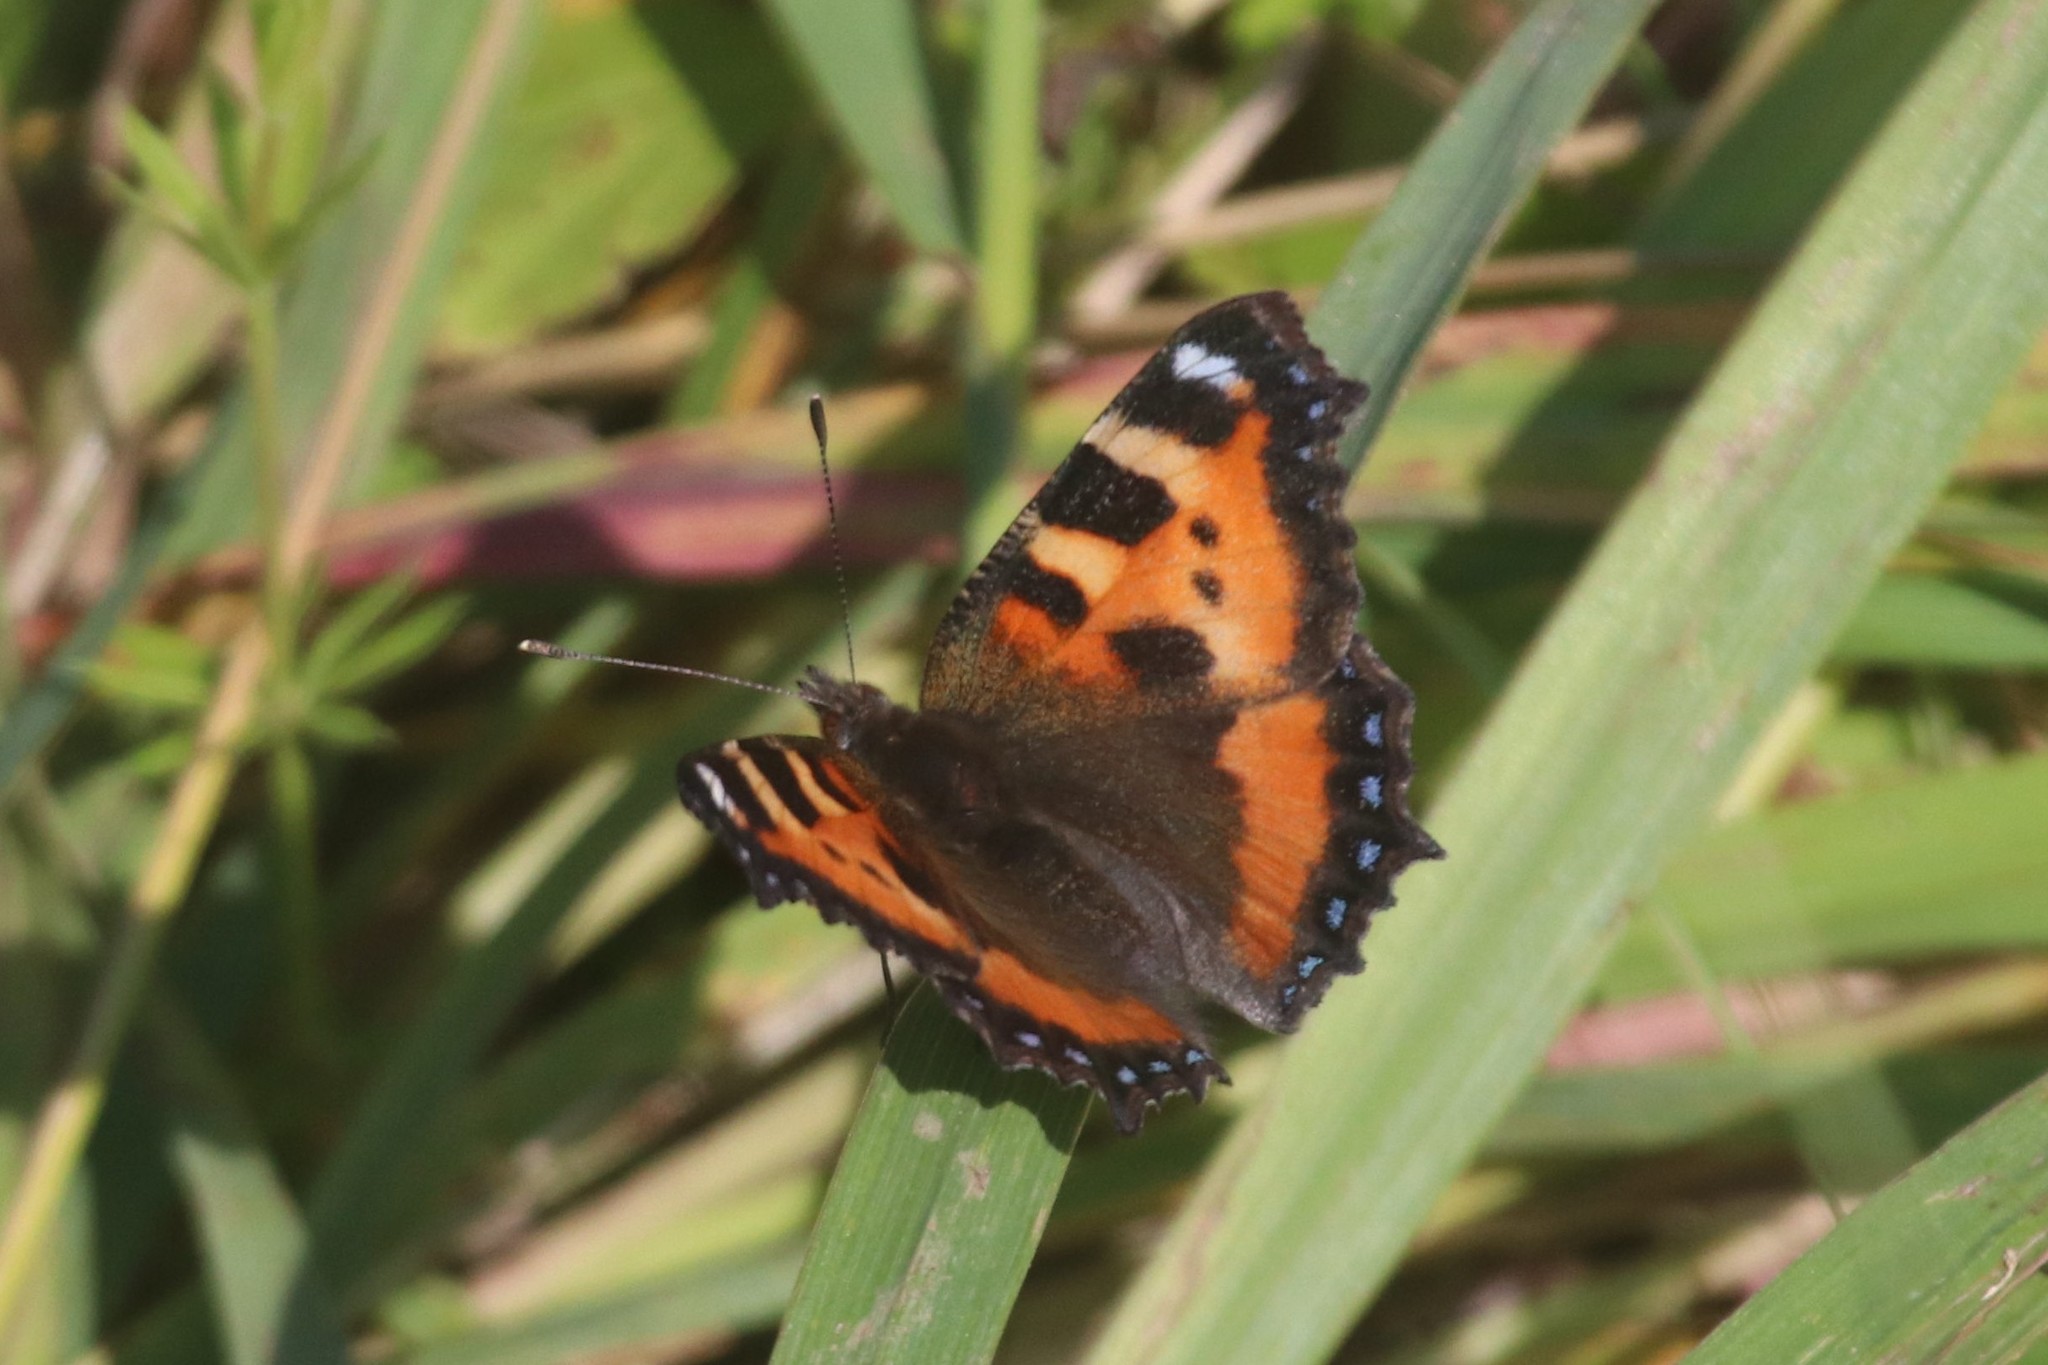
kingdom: Animalia
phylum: Arthropoda
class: Insecta
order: Lepidoptera
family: Nymphalidae
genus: Aglais
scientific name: Aglais urticae
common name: Small tortoiseshell
